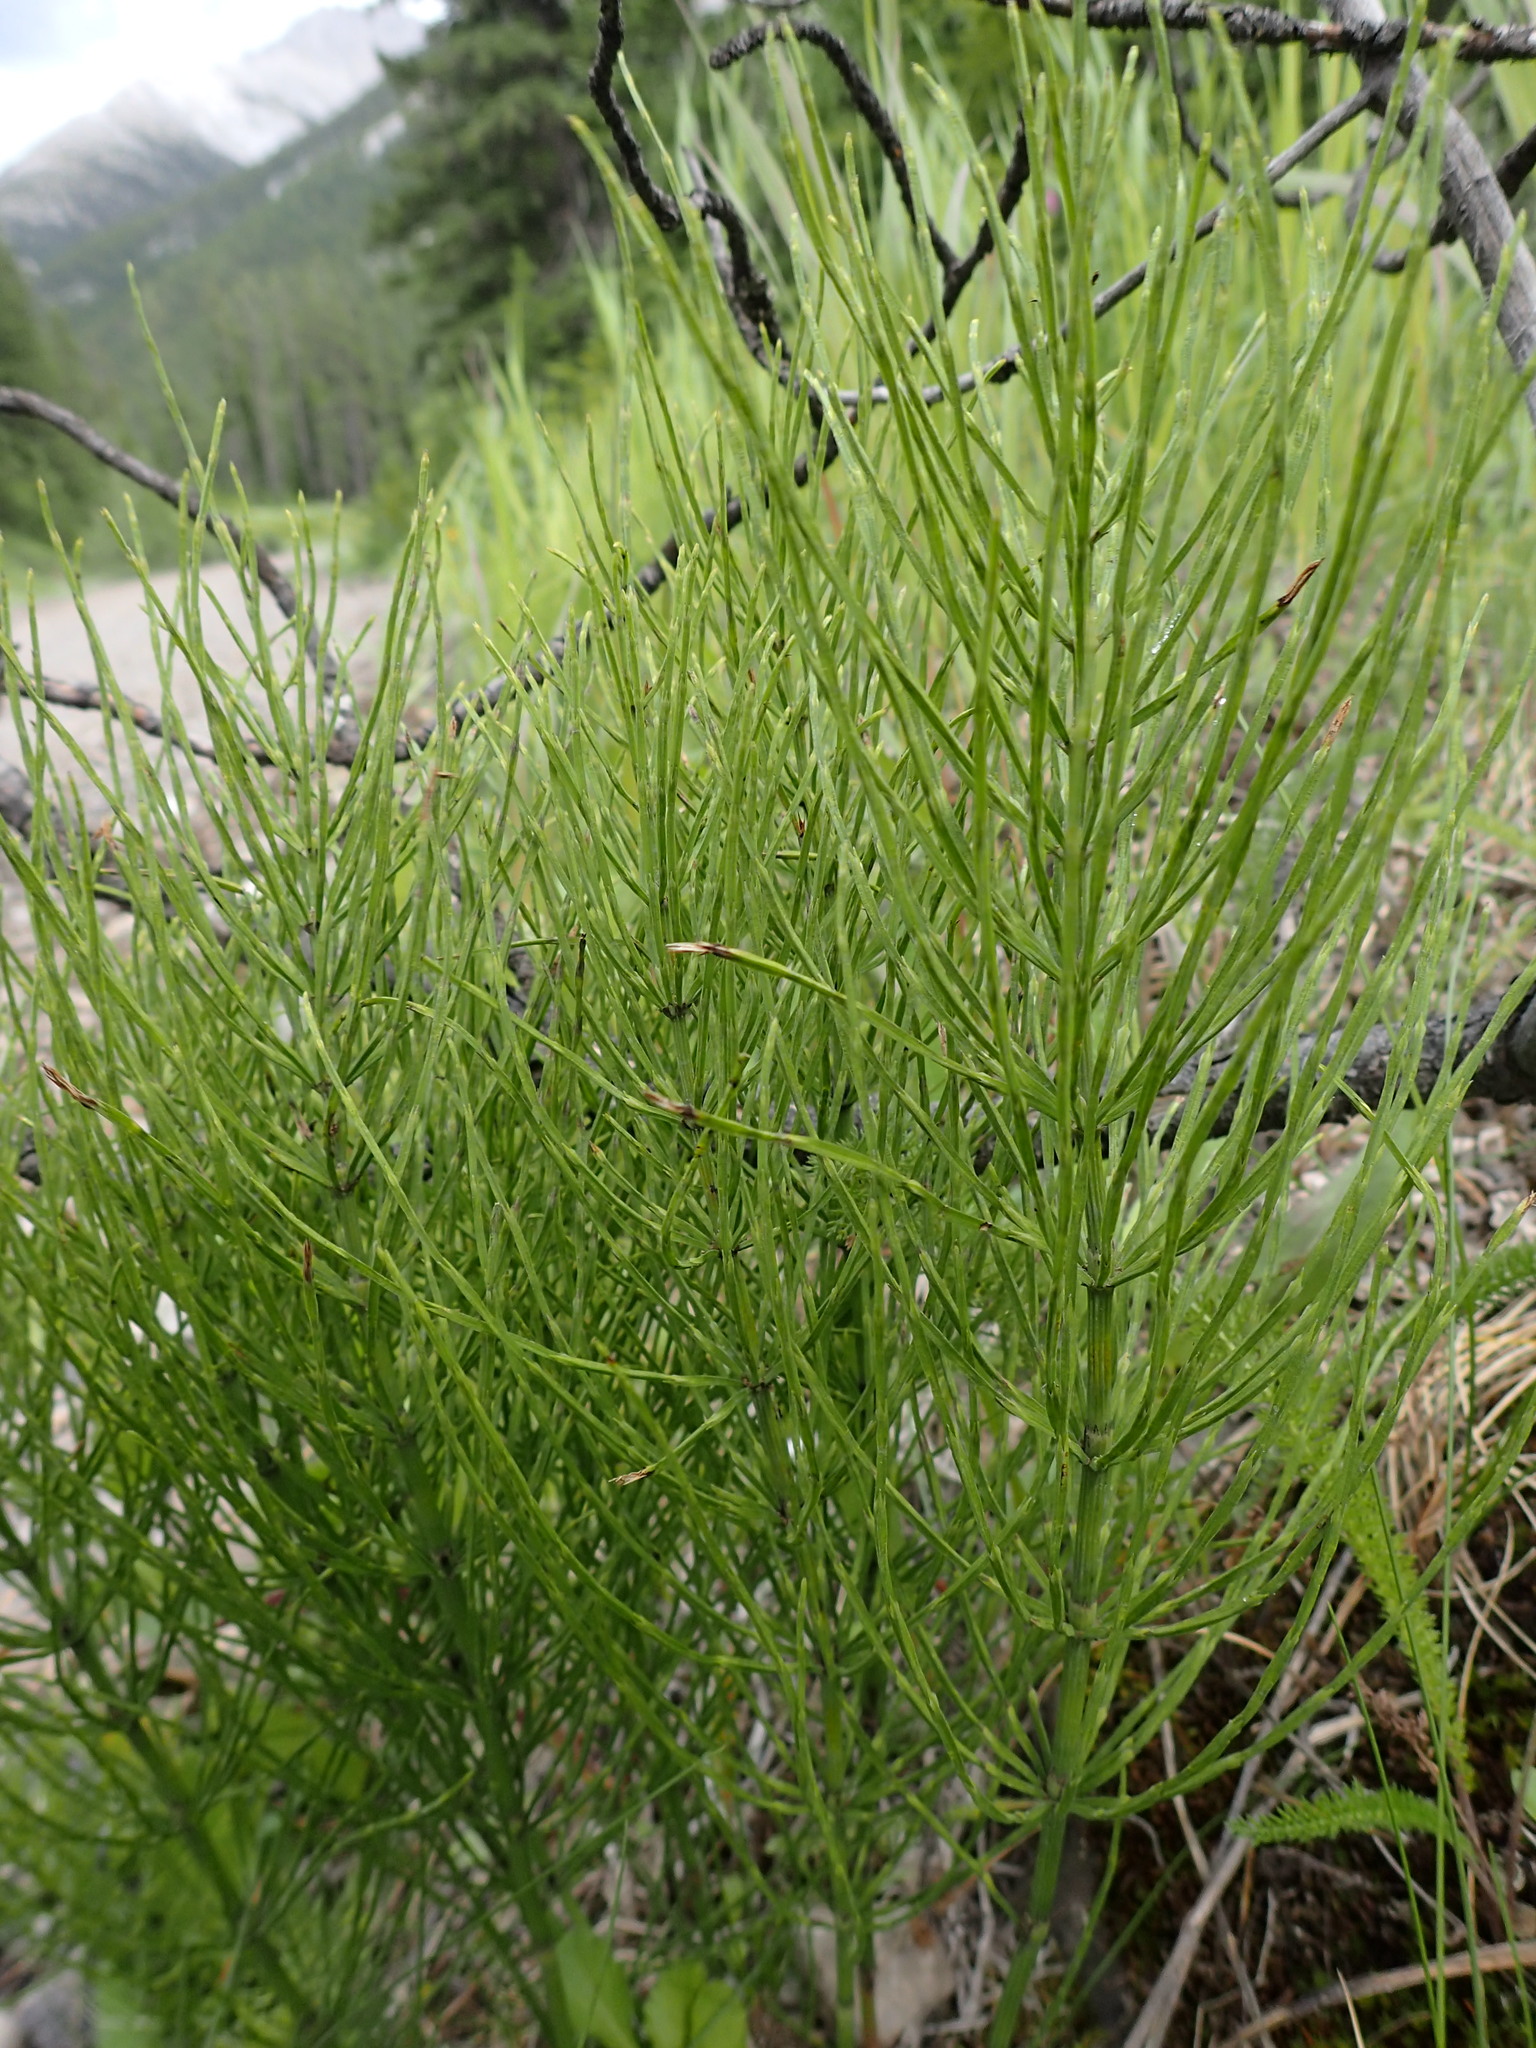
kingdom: Plantae
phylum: Tracheophyta
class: Polypodiopsida
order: Equisetales
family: Equisetaceae
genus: Equisetum
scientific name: Equisetum arvense
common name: Field horsetail
